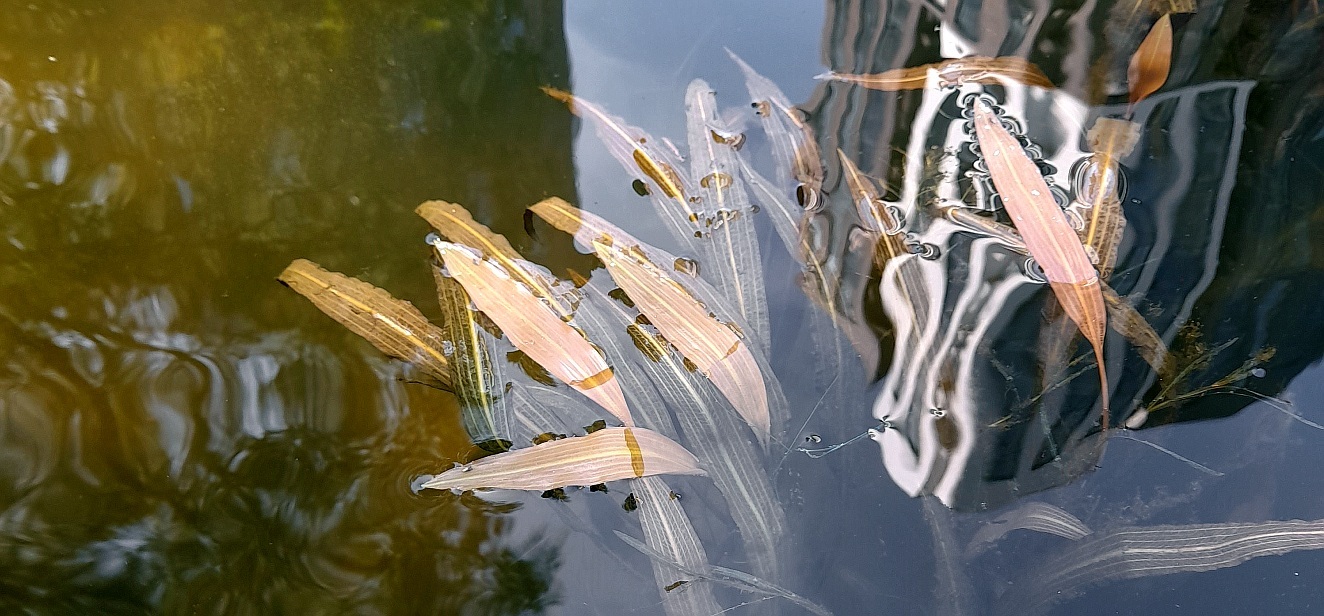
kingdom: Plantae
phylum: Tracheophyta
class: Liliopsida
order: Alismatales
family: Potamogetonaceae
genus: Potamogeton
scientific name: Potamogeton nodosus
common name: Loddon pondweed
